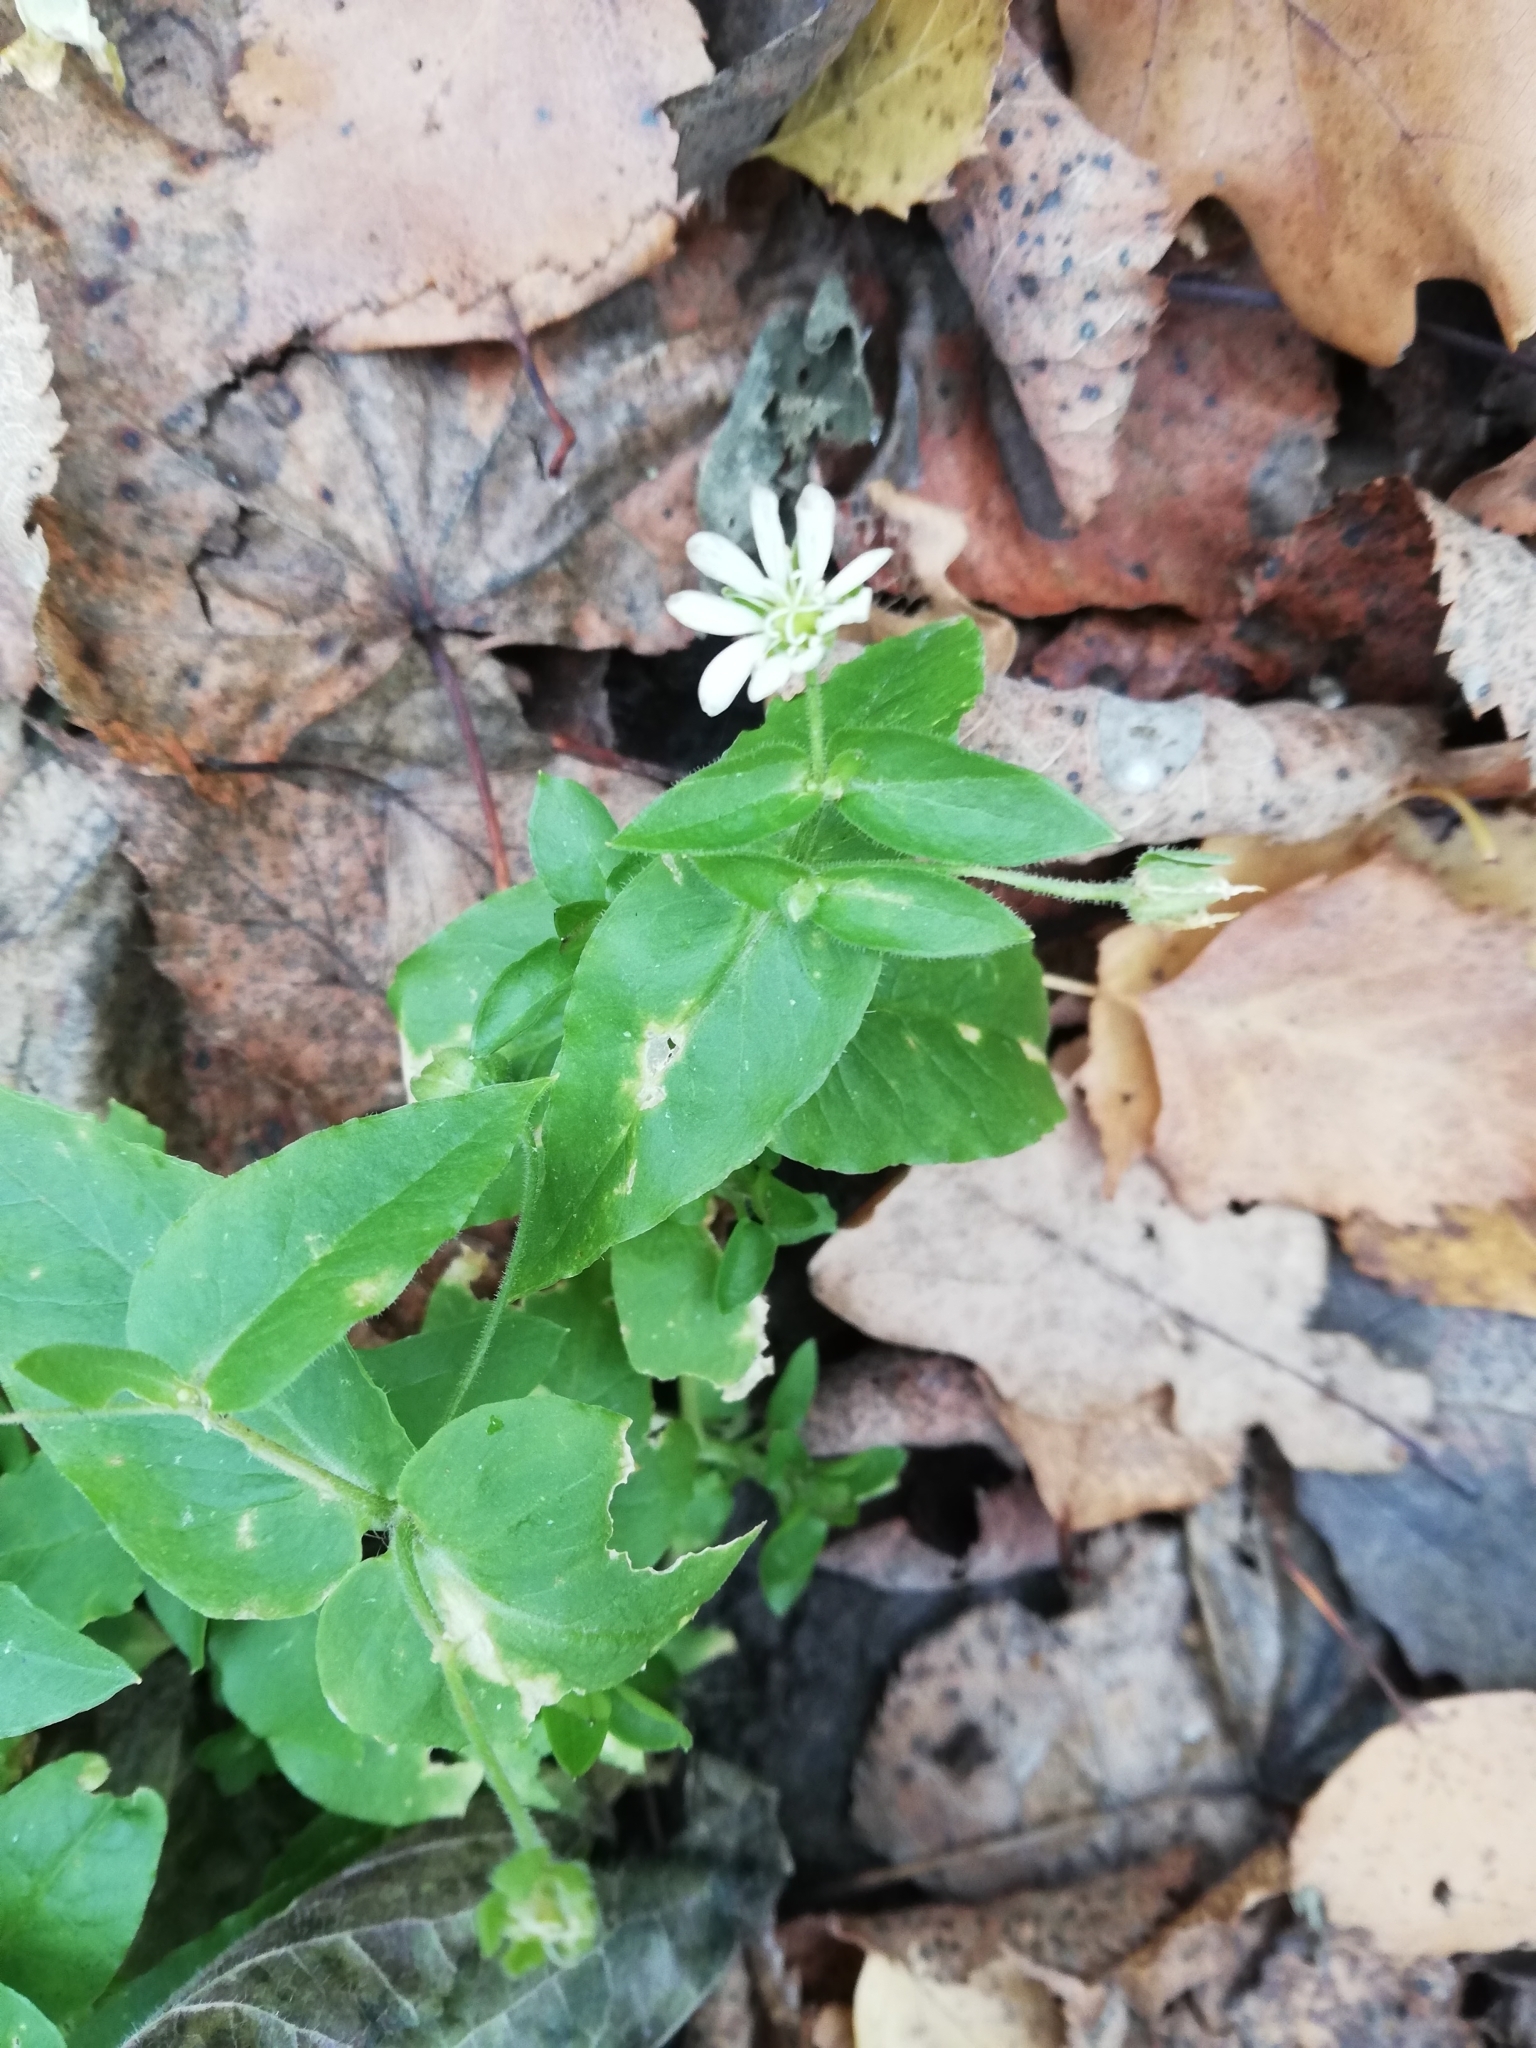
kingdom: Plantae
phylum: Tracheophyta
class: Magnoliopsida
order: Caryophyllales
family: Caryophyllaceae
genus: Stellaria
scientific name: Stellaria aquatica
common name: Water chickweed
